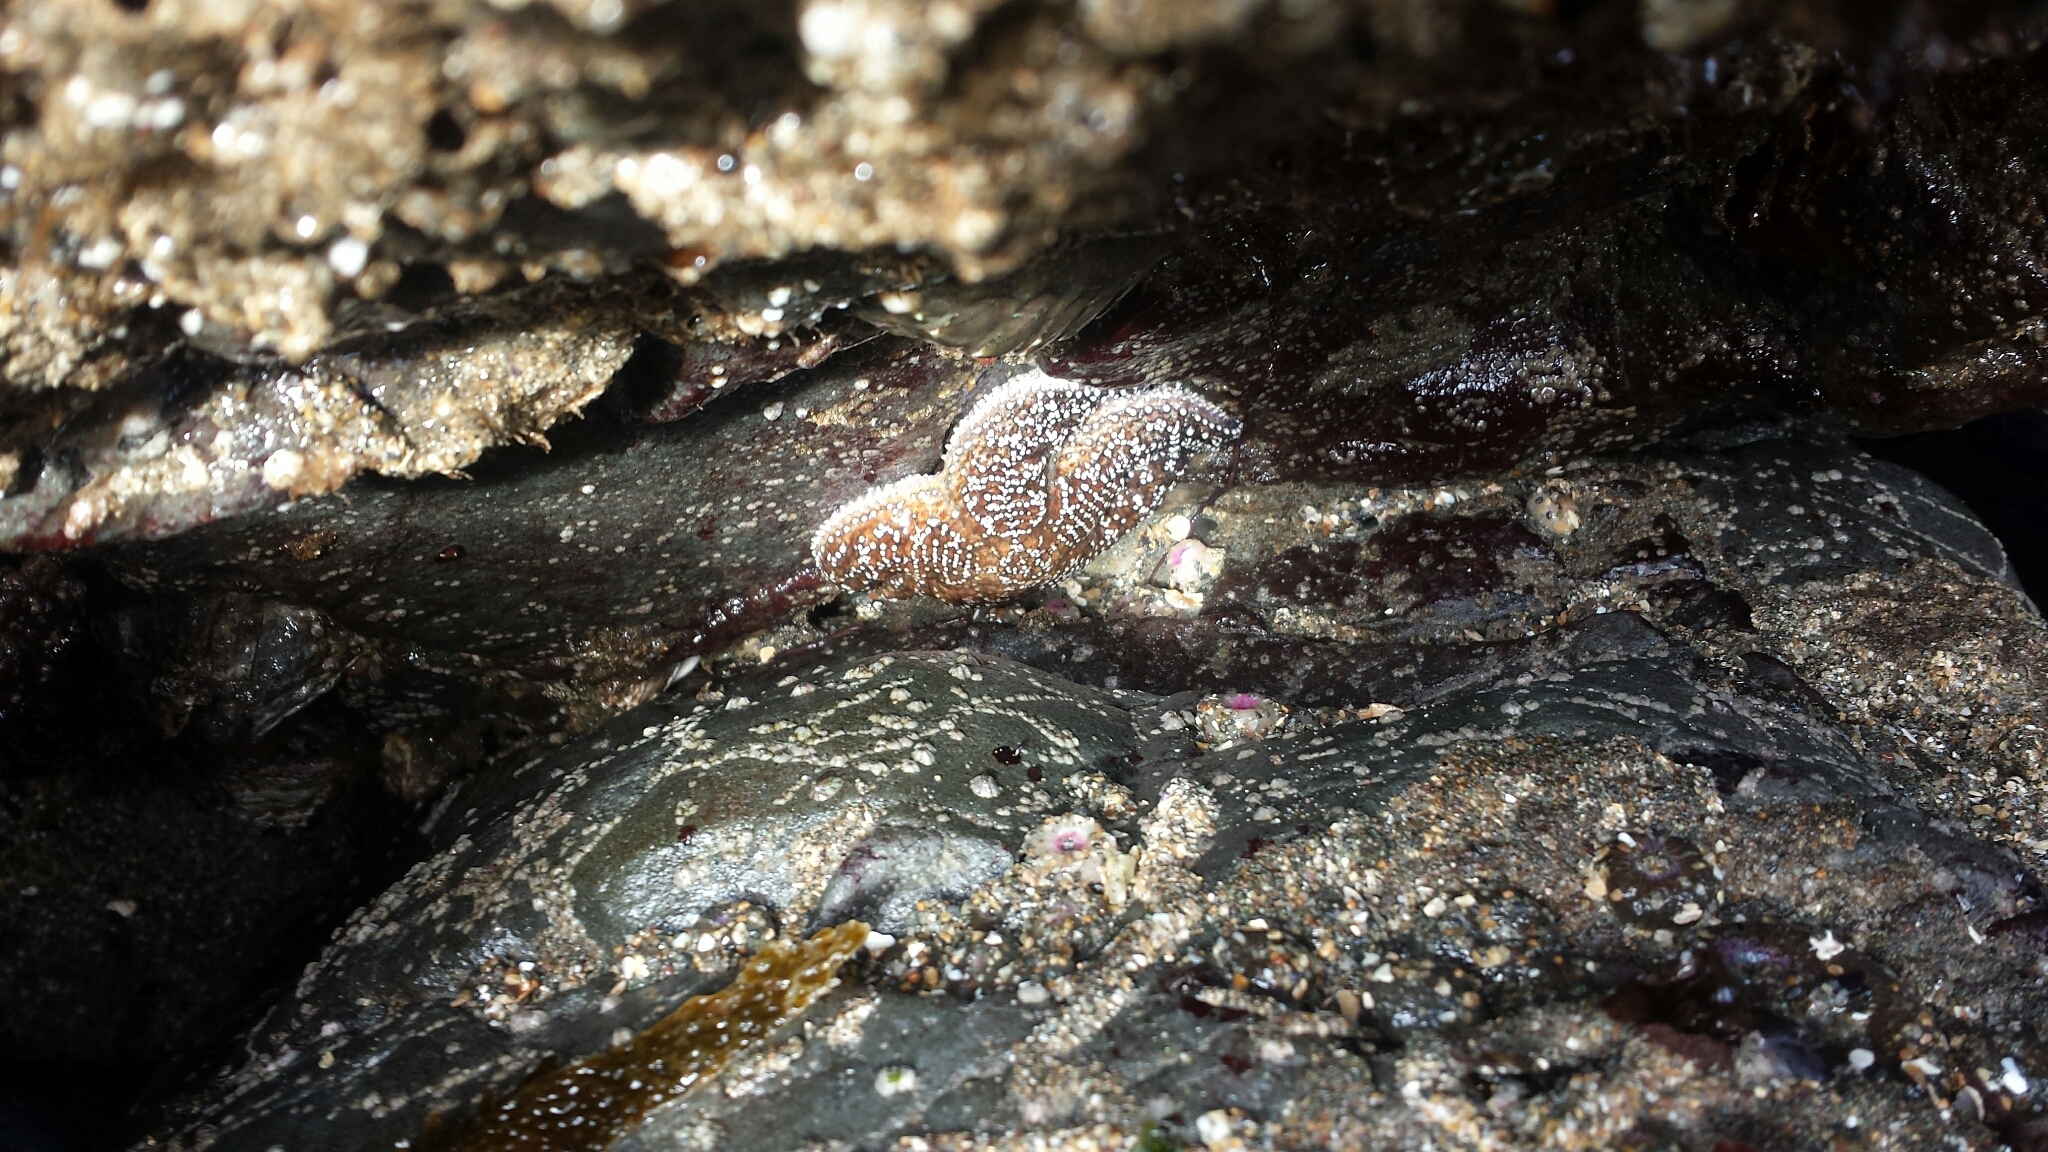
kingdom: Animalia
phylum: Echinodermata
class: Asteroidea
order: Forcipulatida
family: Asteriidae
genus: Pisaster
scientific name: Pisaster ochraceus
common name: Ochre stars
